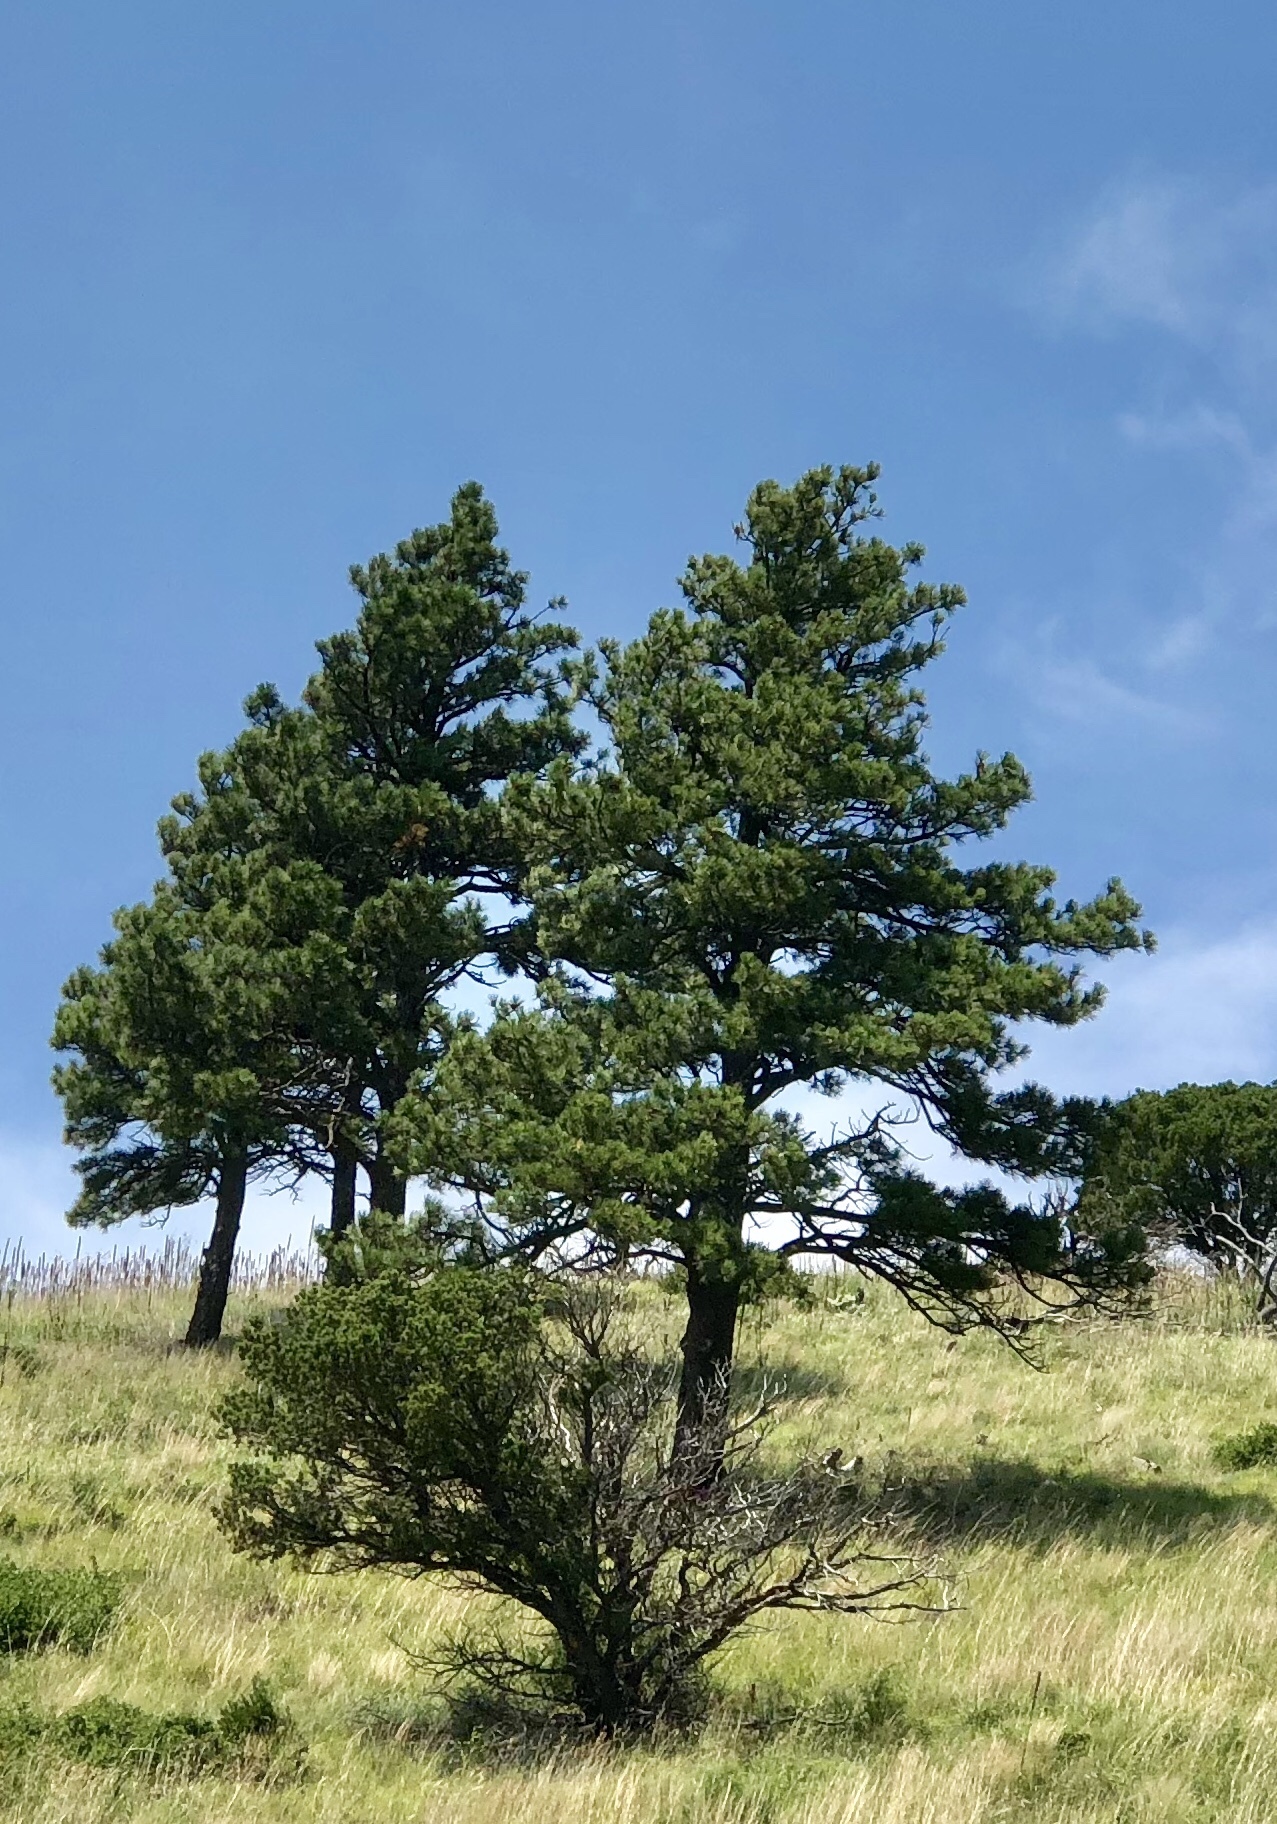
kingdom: Plantae
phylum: Tracheophyta
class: Pinopsida
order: Pinales
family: Pinaceae
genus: Pinus
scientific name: Pinus ponderosa
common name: Western yellow-pine
